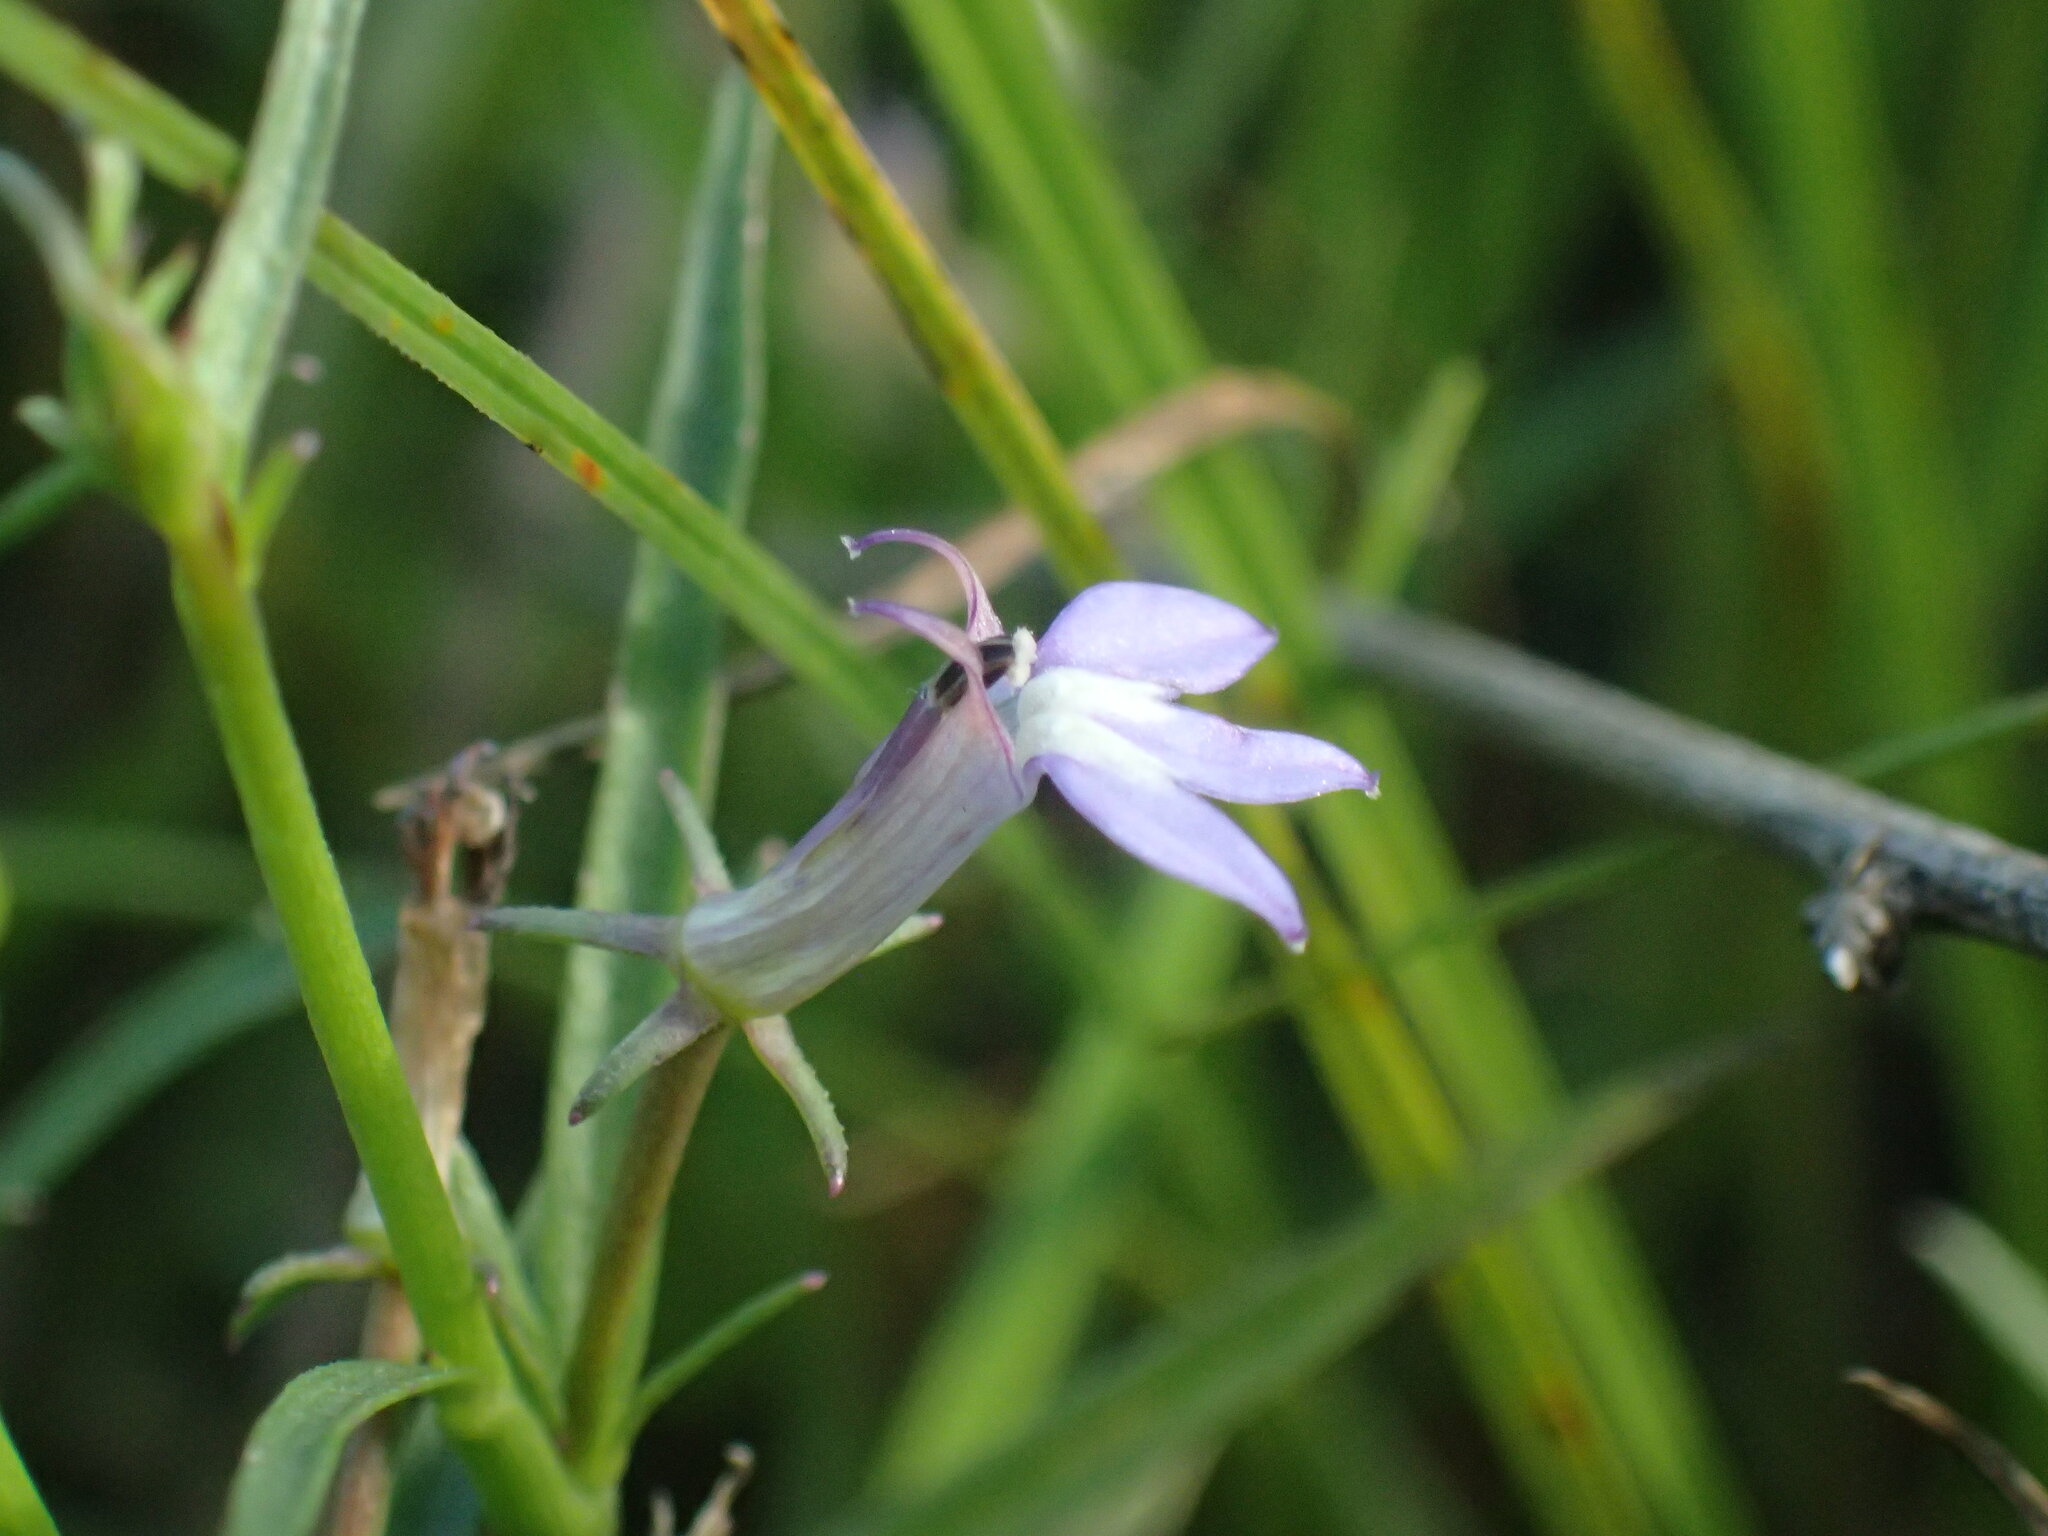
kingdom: Plantae
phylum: Tracheophyta
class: Magnoliopsida
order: Asterales
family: Campanulaceae
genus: Grammatotheca
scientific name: Grammatotheca bergiana
